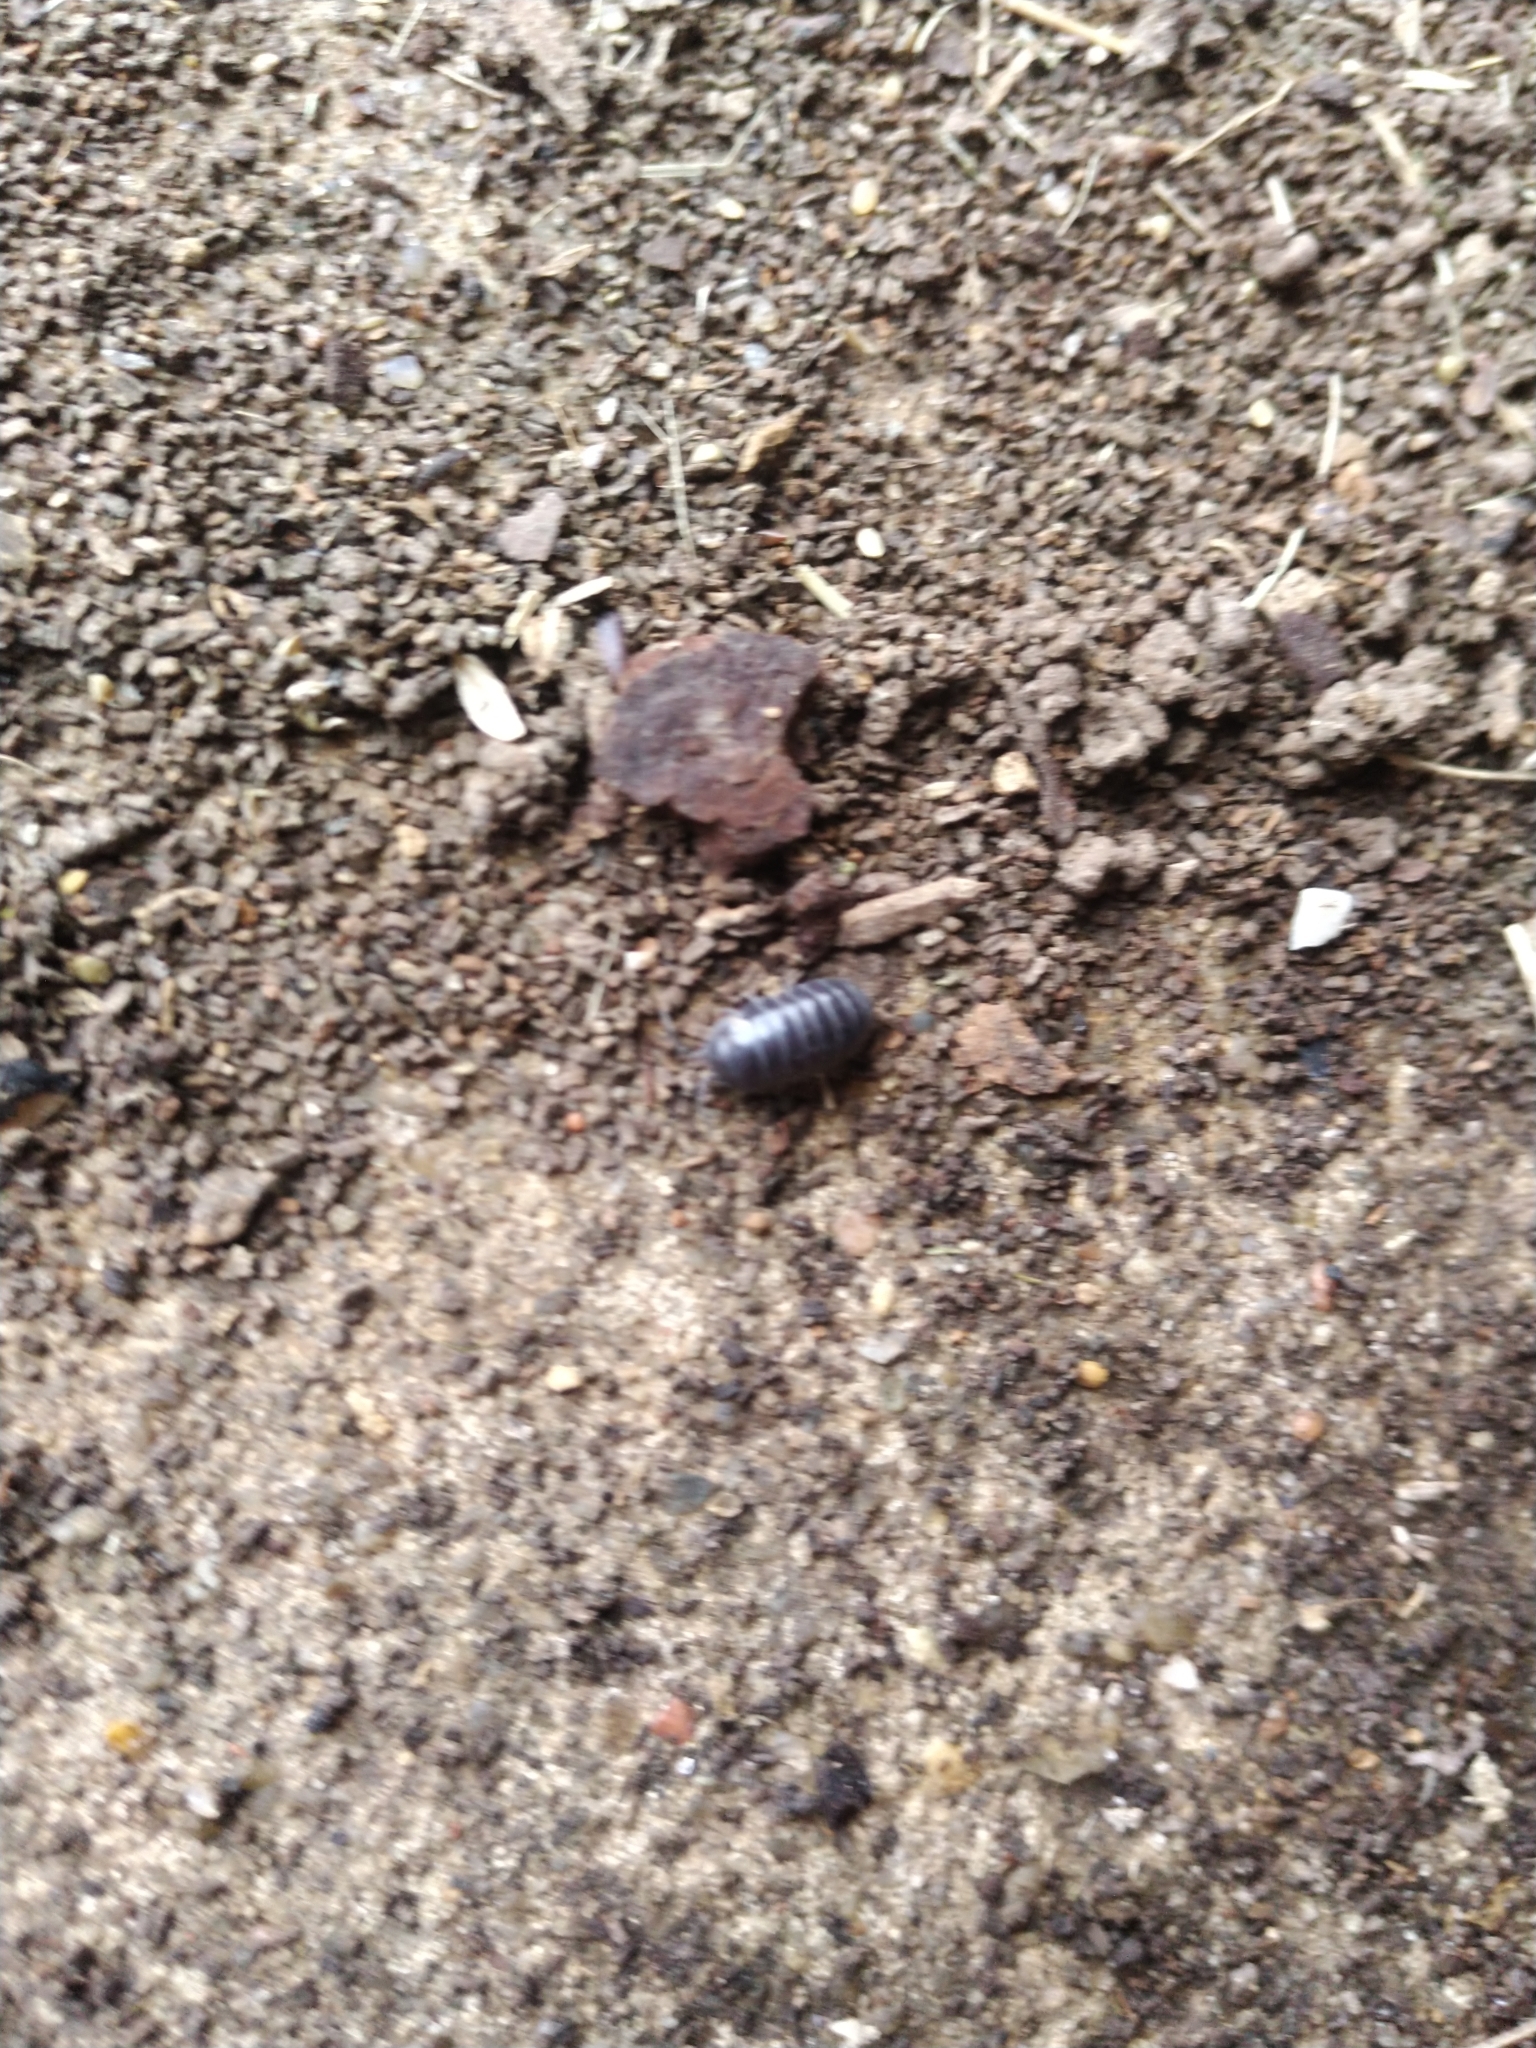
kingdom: Animalia
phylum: Arthropoda
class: Malacostraca
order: Isopoda
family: Armadillidiidae
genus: Armadillidium
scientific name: Armadillidium vulgare
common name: Common pill woodlouse
